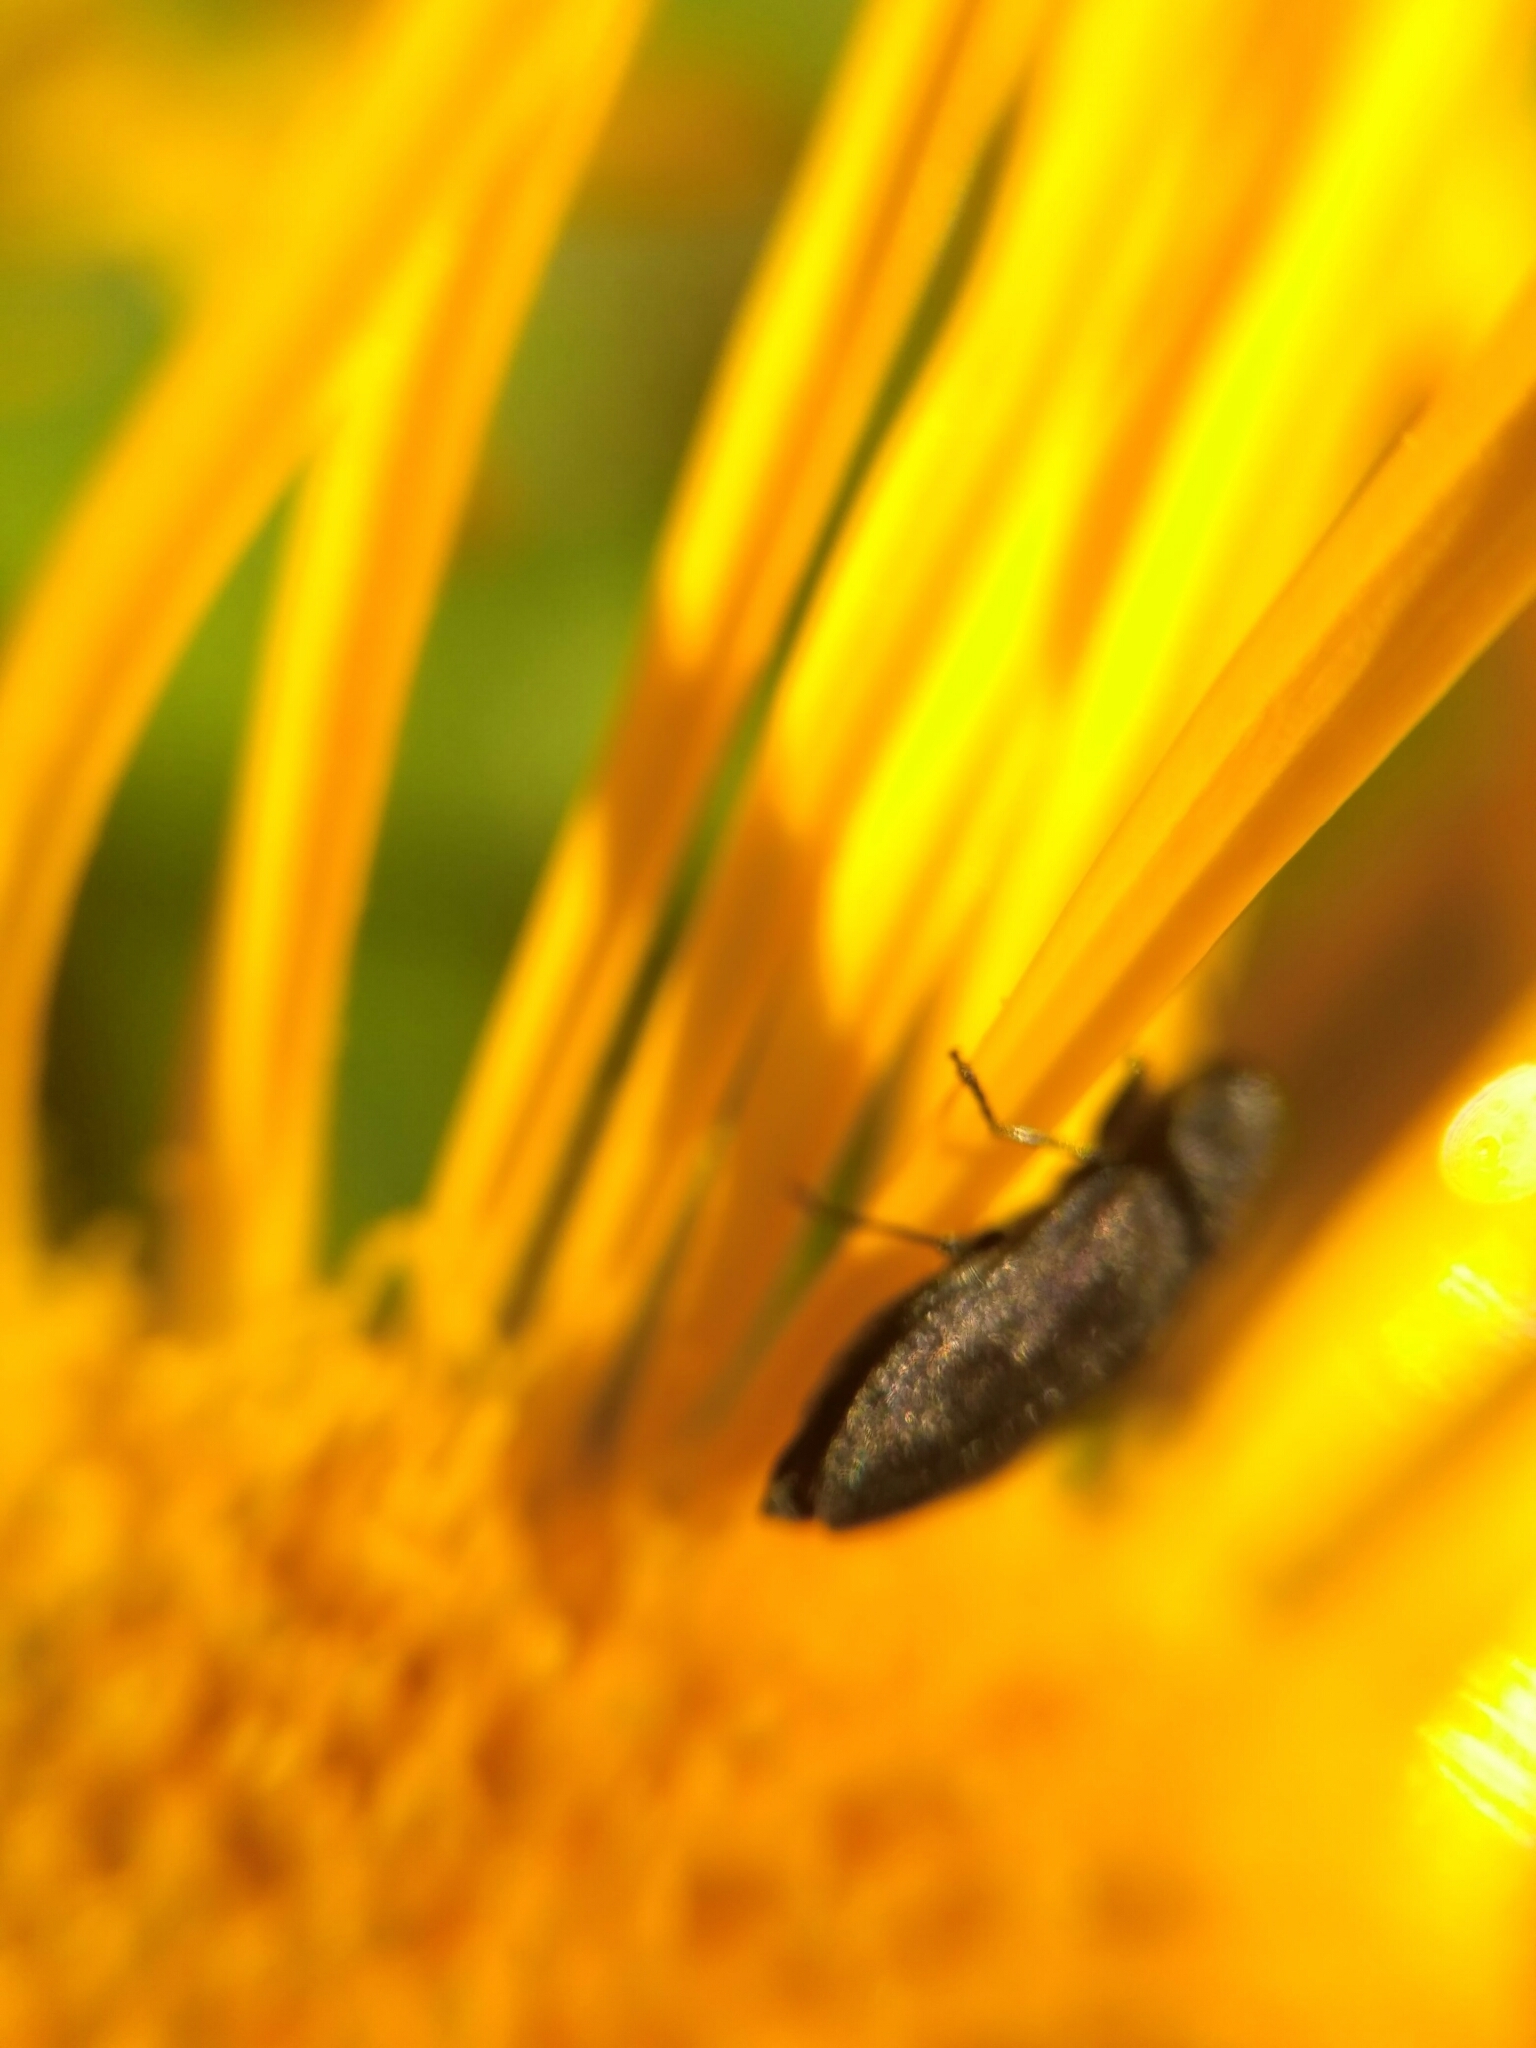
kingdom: Animalia
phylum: Arthropoda
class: Insecta
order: Coleoptera
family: Buprestidae
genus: Anthaxia
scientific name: Anthaxia quadripunctata
